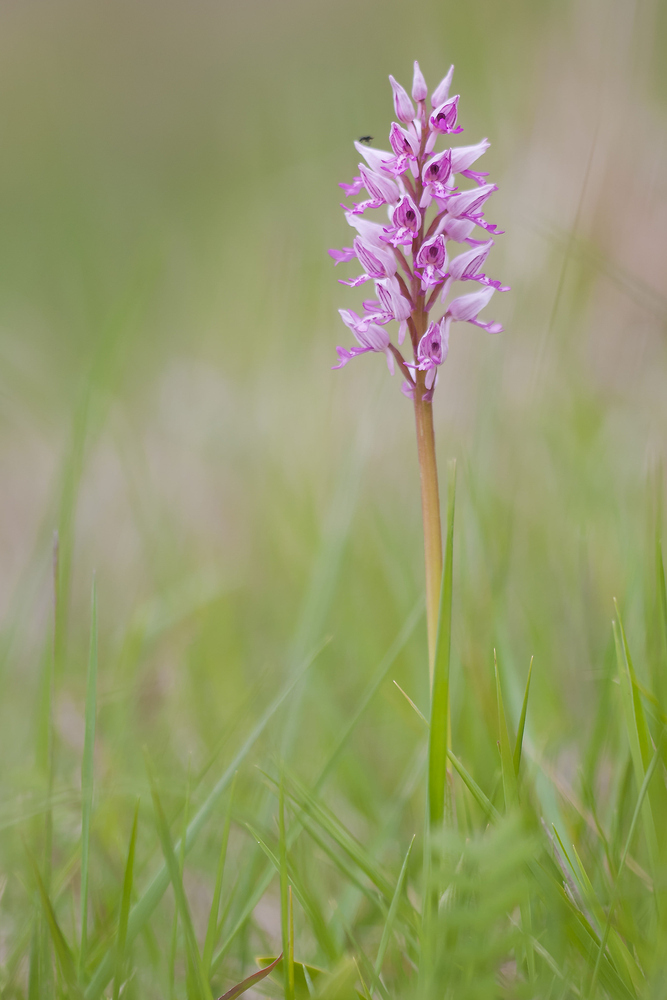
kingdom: Plantae
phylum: Tracheophyta
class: Liliopsida
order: Asparagales
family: Orchidaceae
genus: Orchis
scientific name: Orchis militaris
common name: Military orchid
